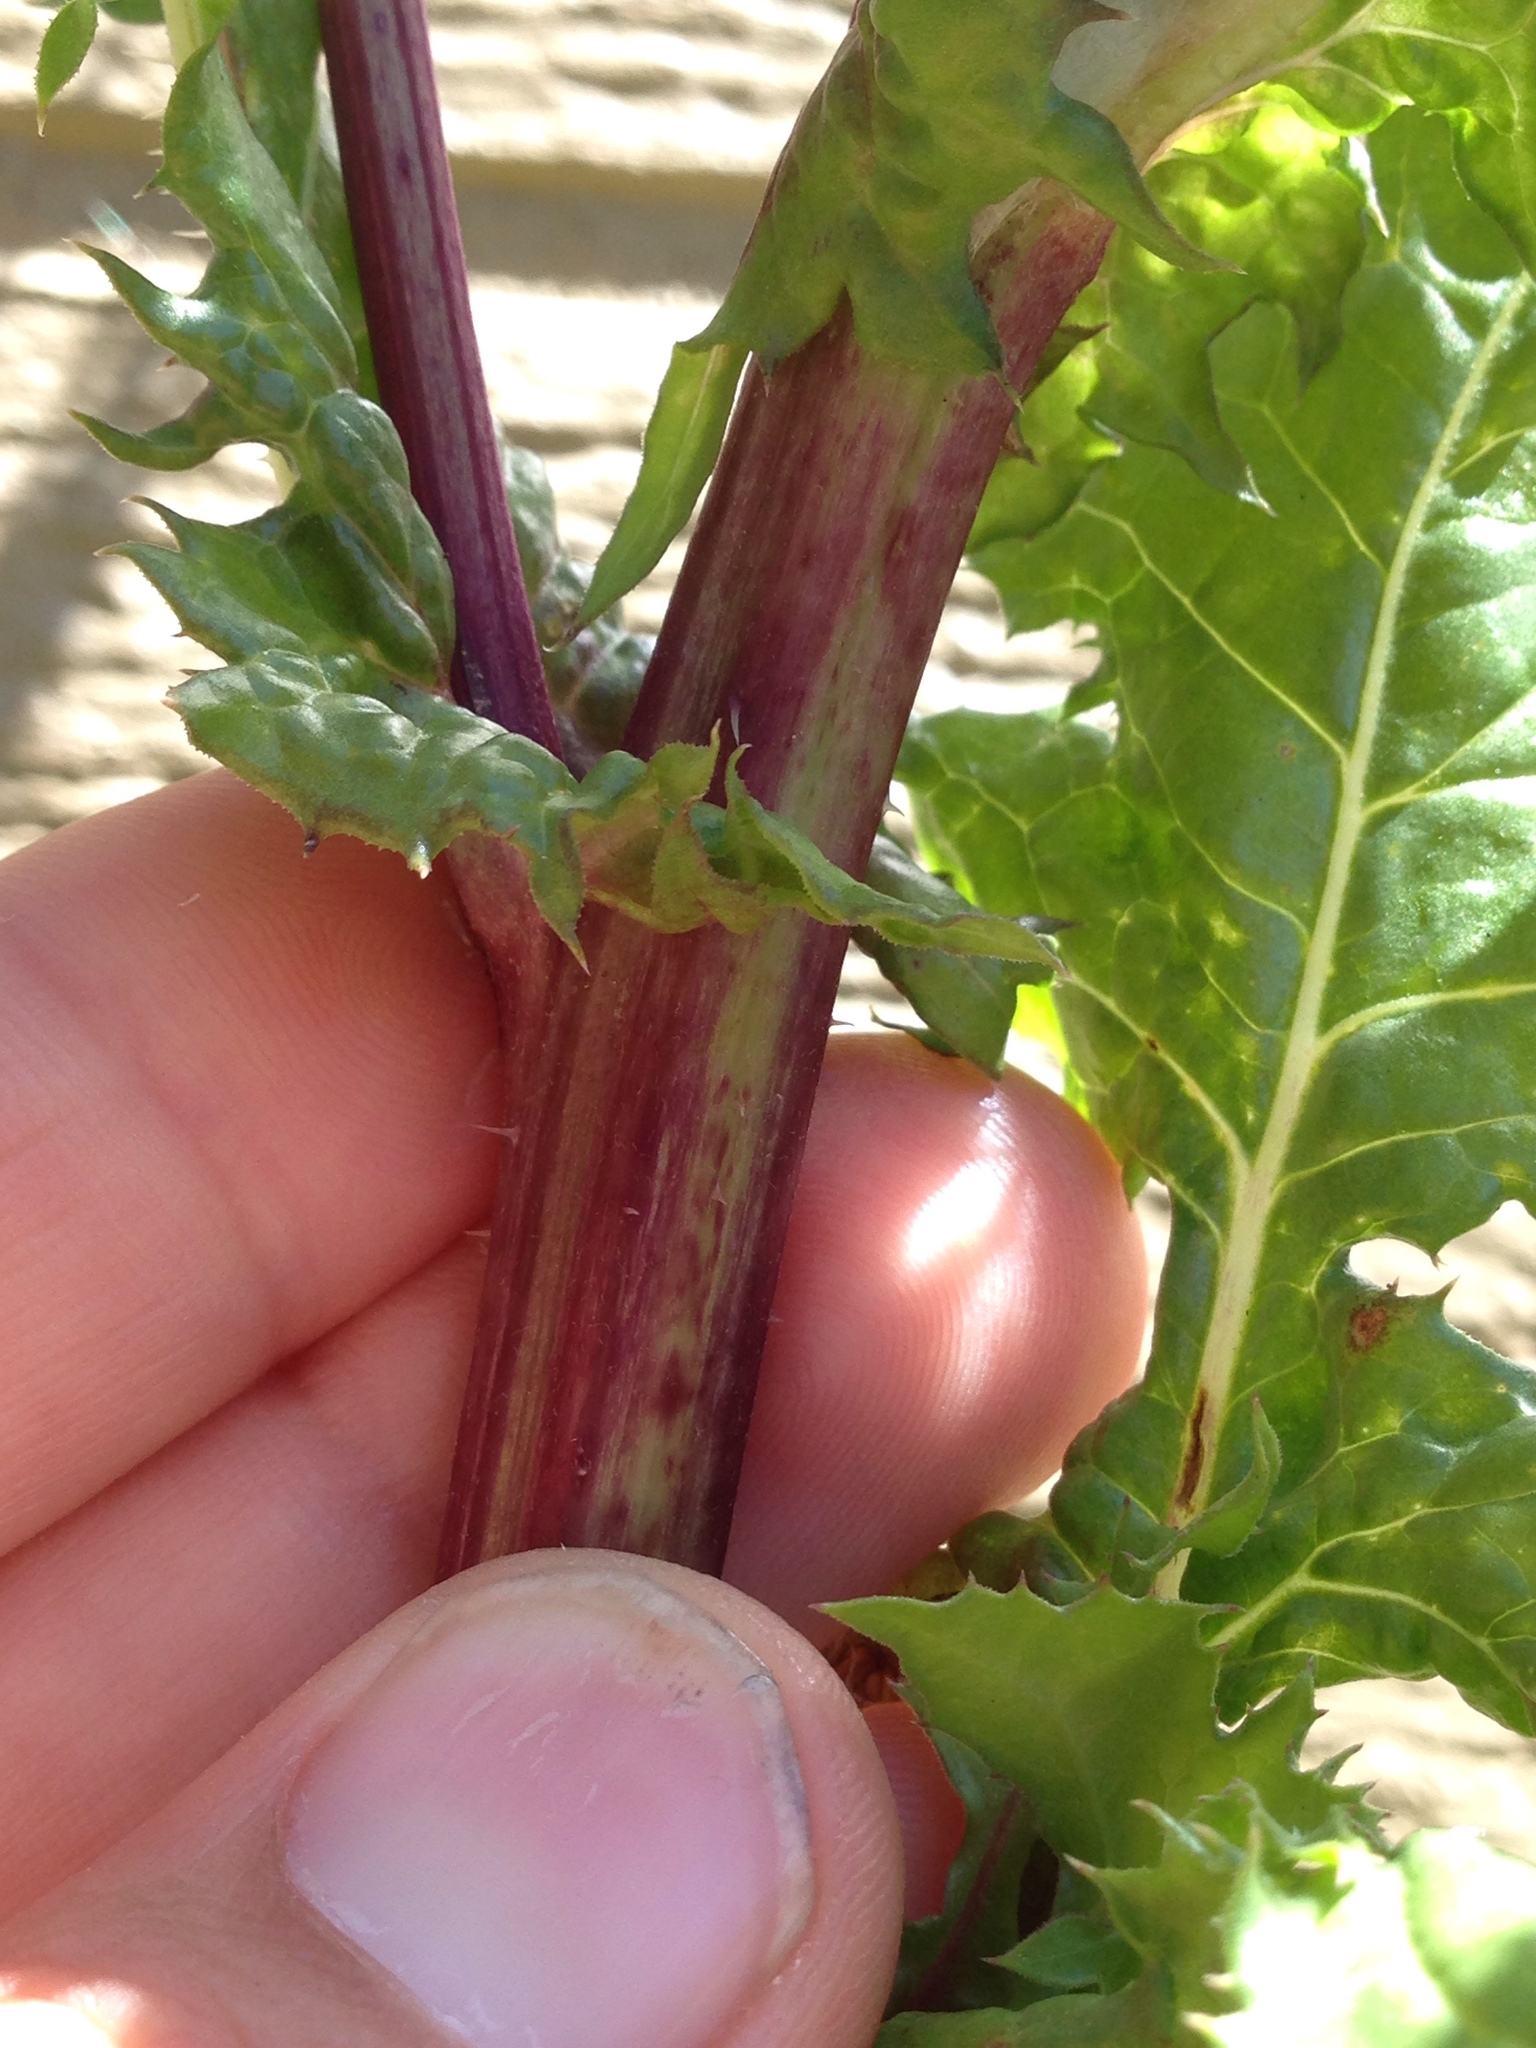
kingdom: Plantae
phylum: Tracheophyta
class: Magnoliopsida
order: Asterales
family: Asteraceae
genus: Urospermum
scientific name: Urospermum picroides
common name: False hawkbit
